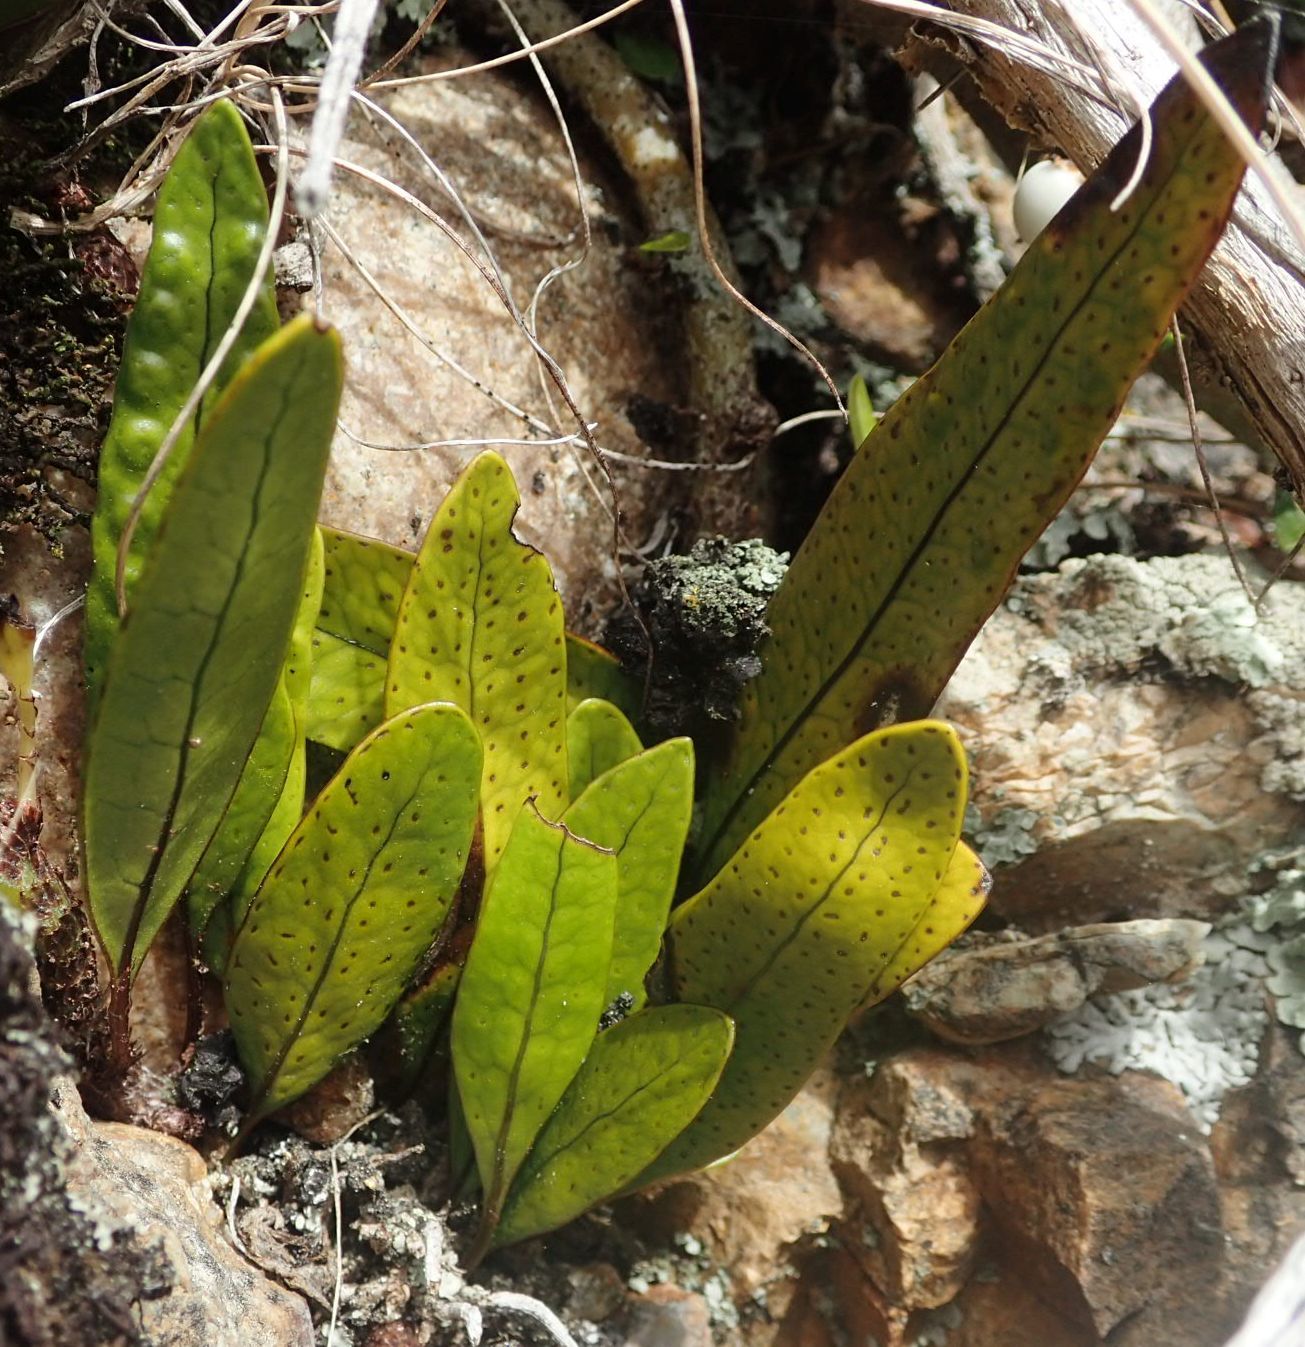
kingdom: Plantae
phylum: Tracheophyta
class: Polypodiopsida
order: Polypodiales
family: Polypodiaceae
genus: Lecanopteris
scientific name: Lecanopteris pustulata
